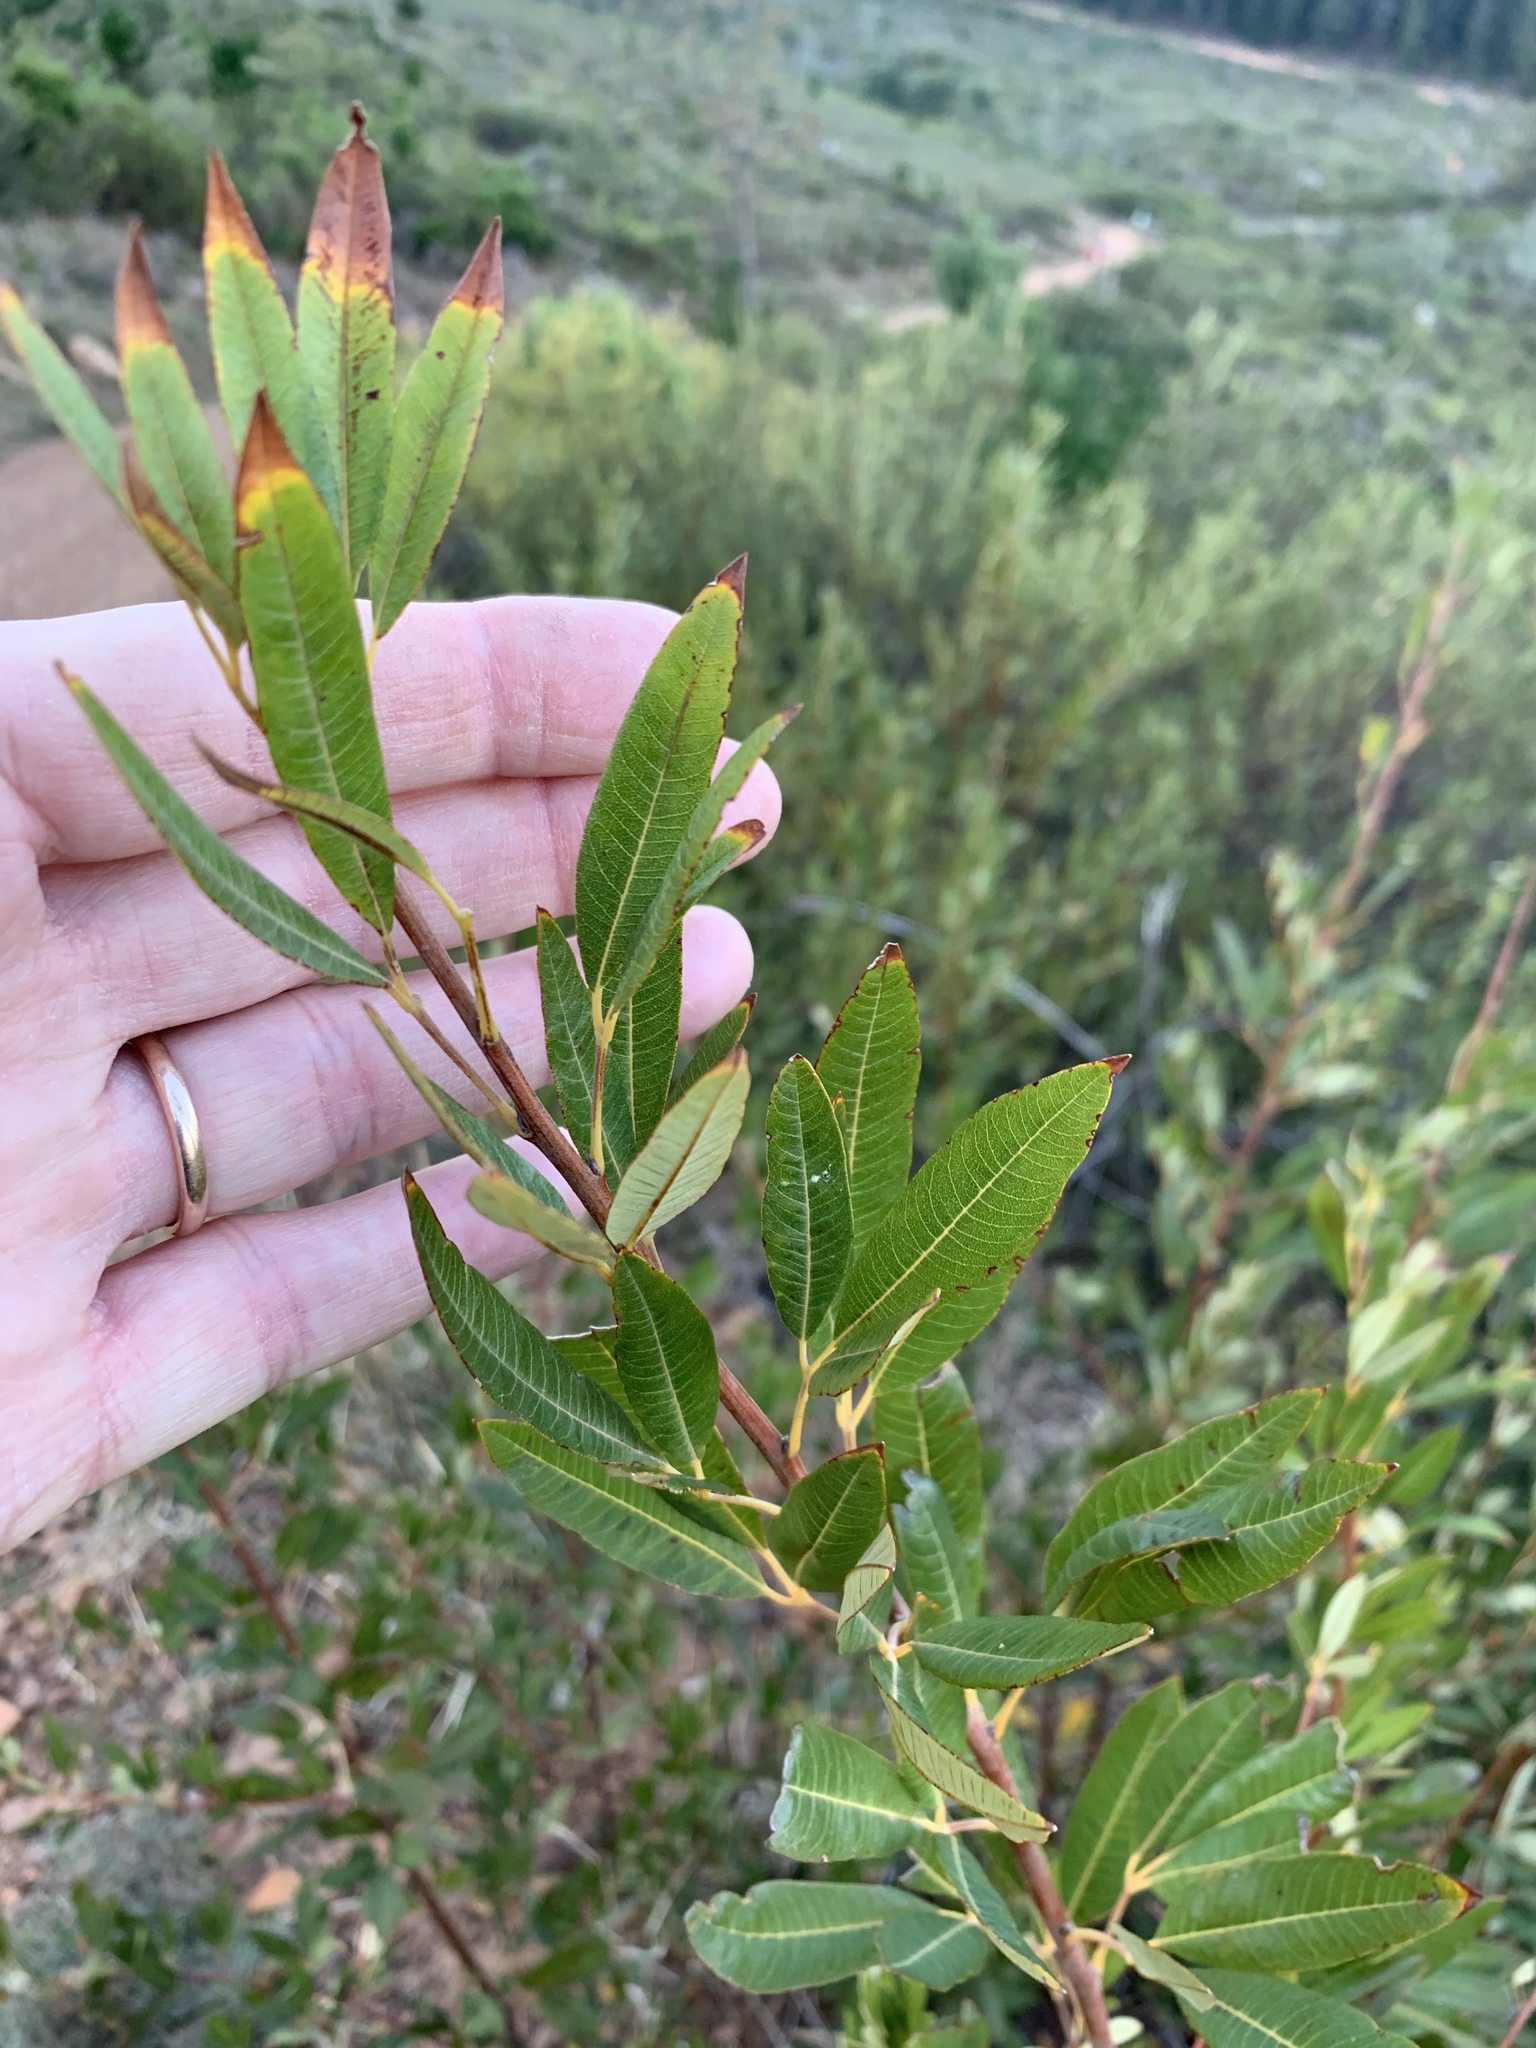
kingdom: Plantae
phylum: Tracheophyta
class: Magnoliopsida
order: Sapindales
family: Anacardiaceae
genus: Searsia
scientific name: Searsia angustifolia
